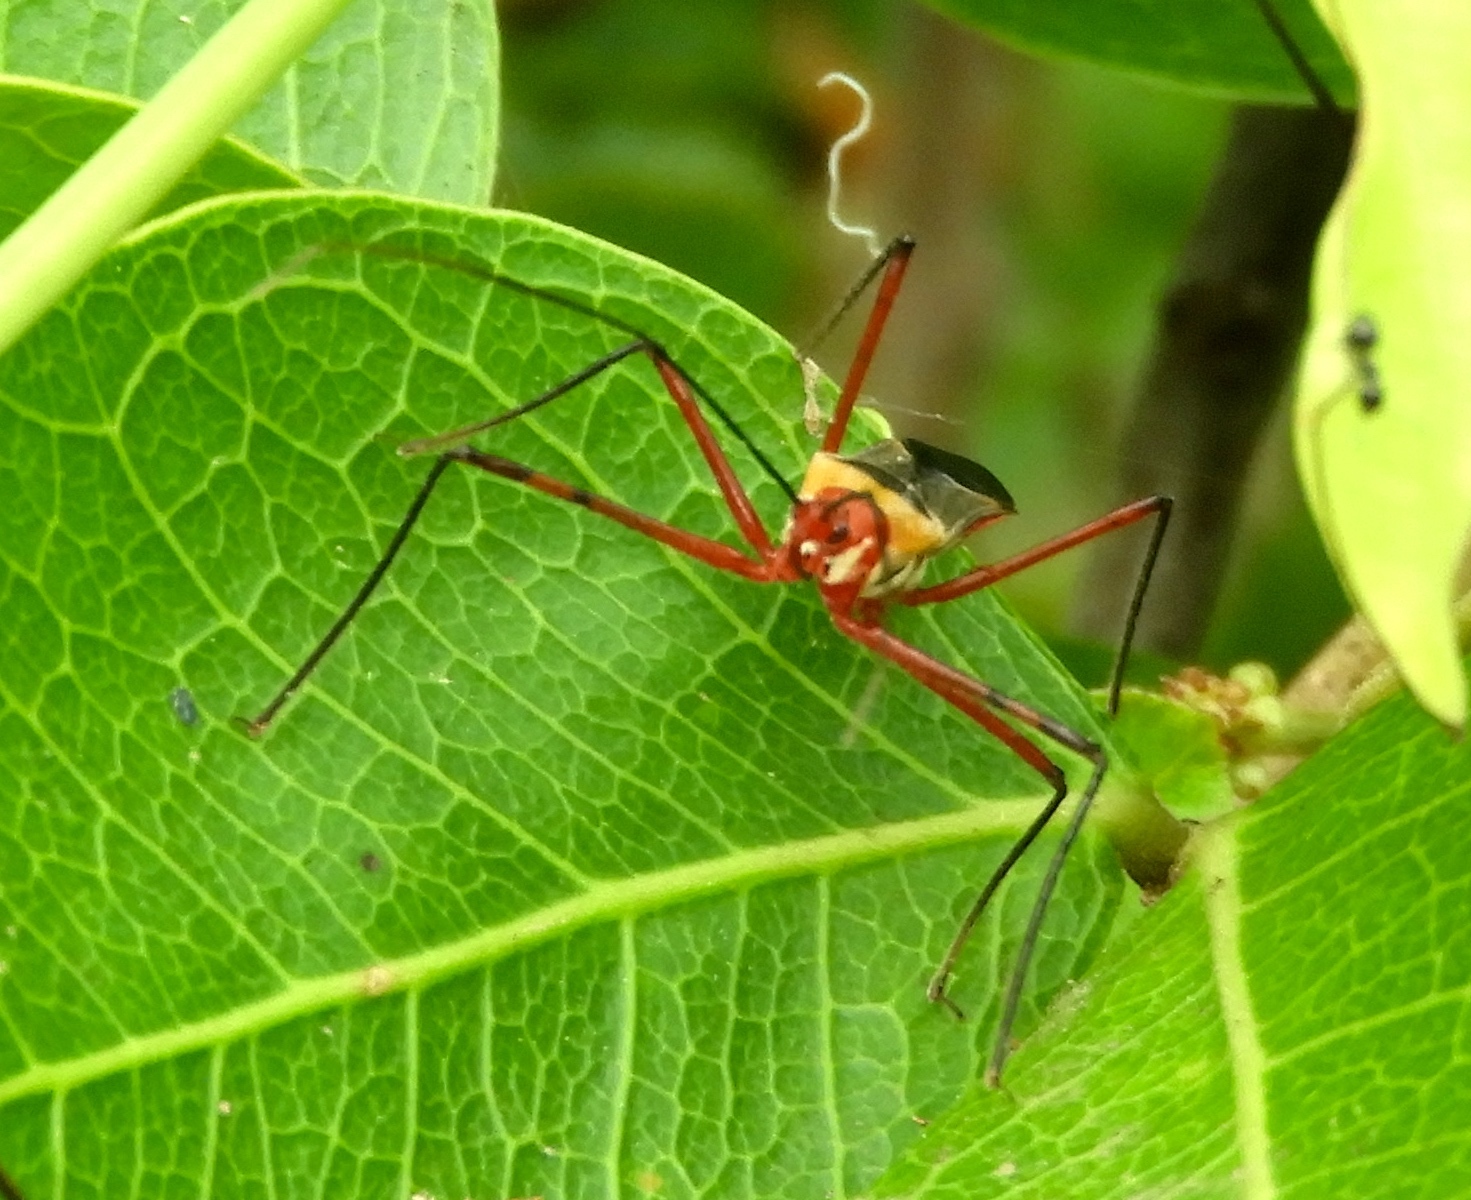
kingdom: Animalia
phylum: Arthropoda
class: Insecta
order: Hemiptera
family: Reduviidae
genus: Zelus
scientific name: Zelus grassans
